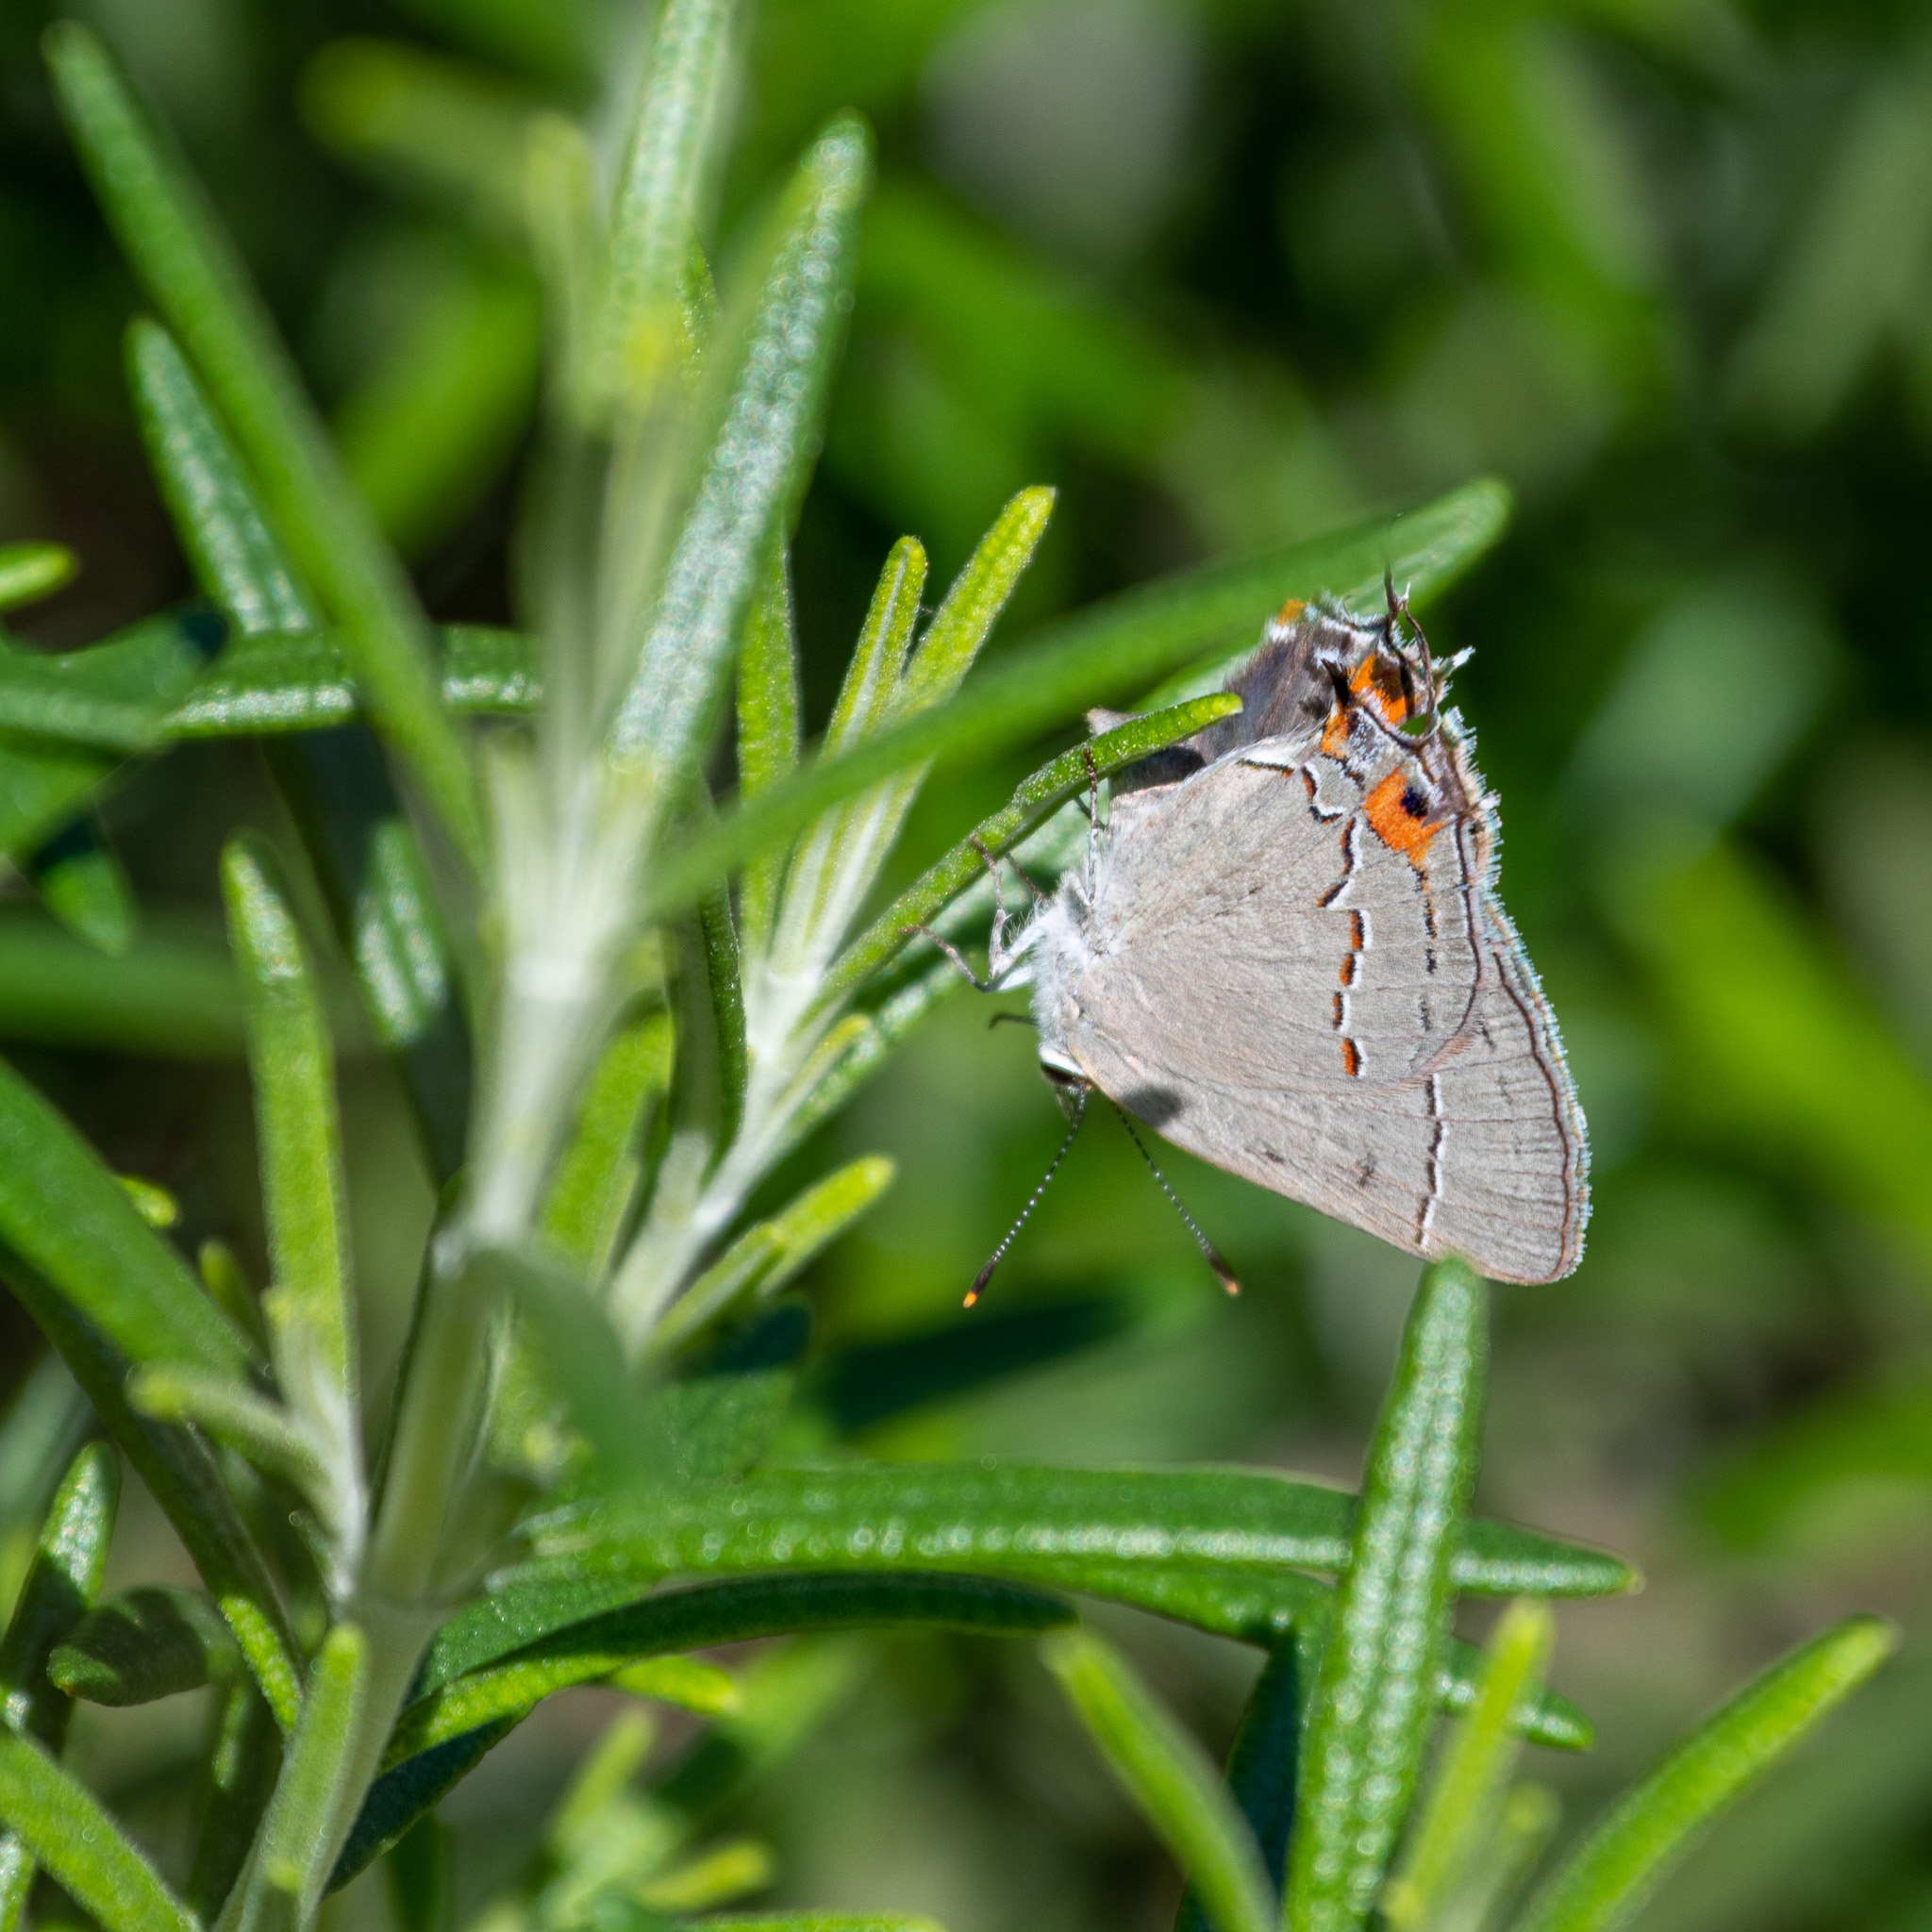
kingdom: Animalia
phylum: Arthropoda
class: Insecta
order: Lepidoptera
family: Lycaenidae
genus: Strymon
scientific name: Strymon melinus
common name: Gray hairstreak
